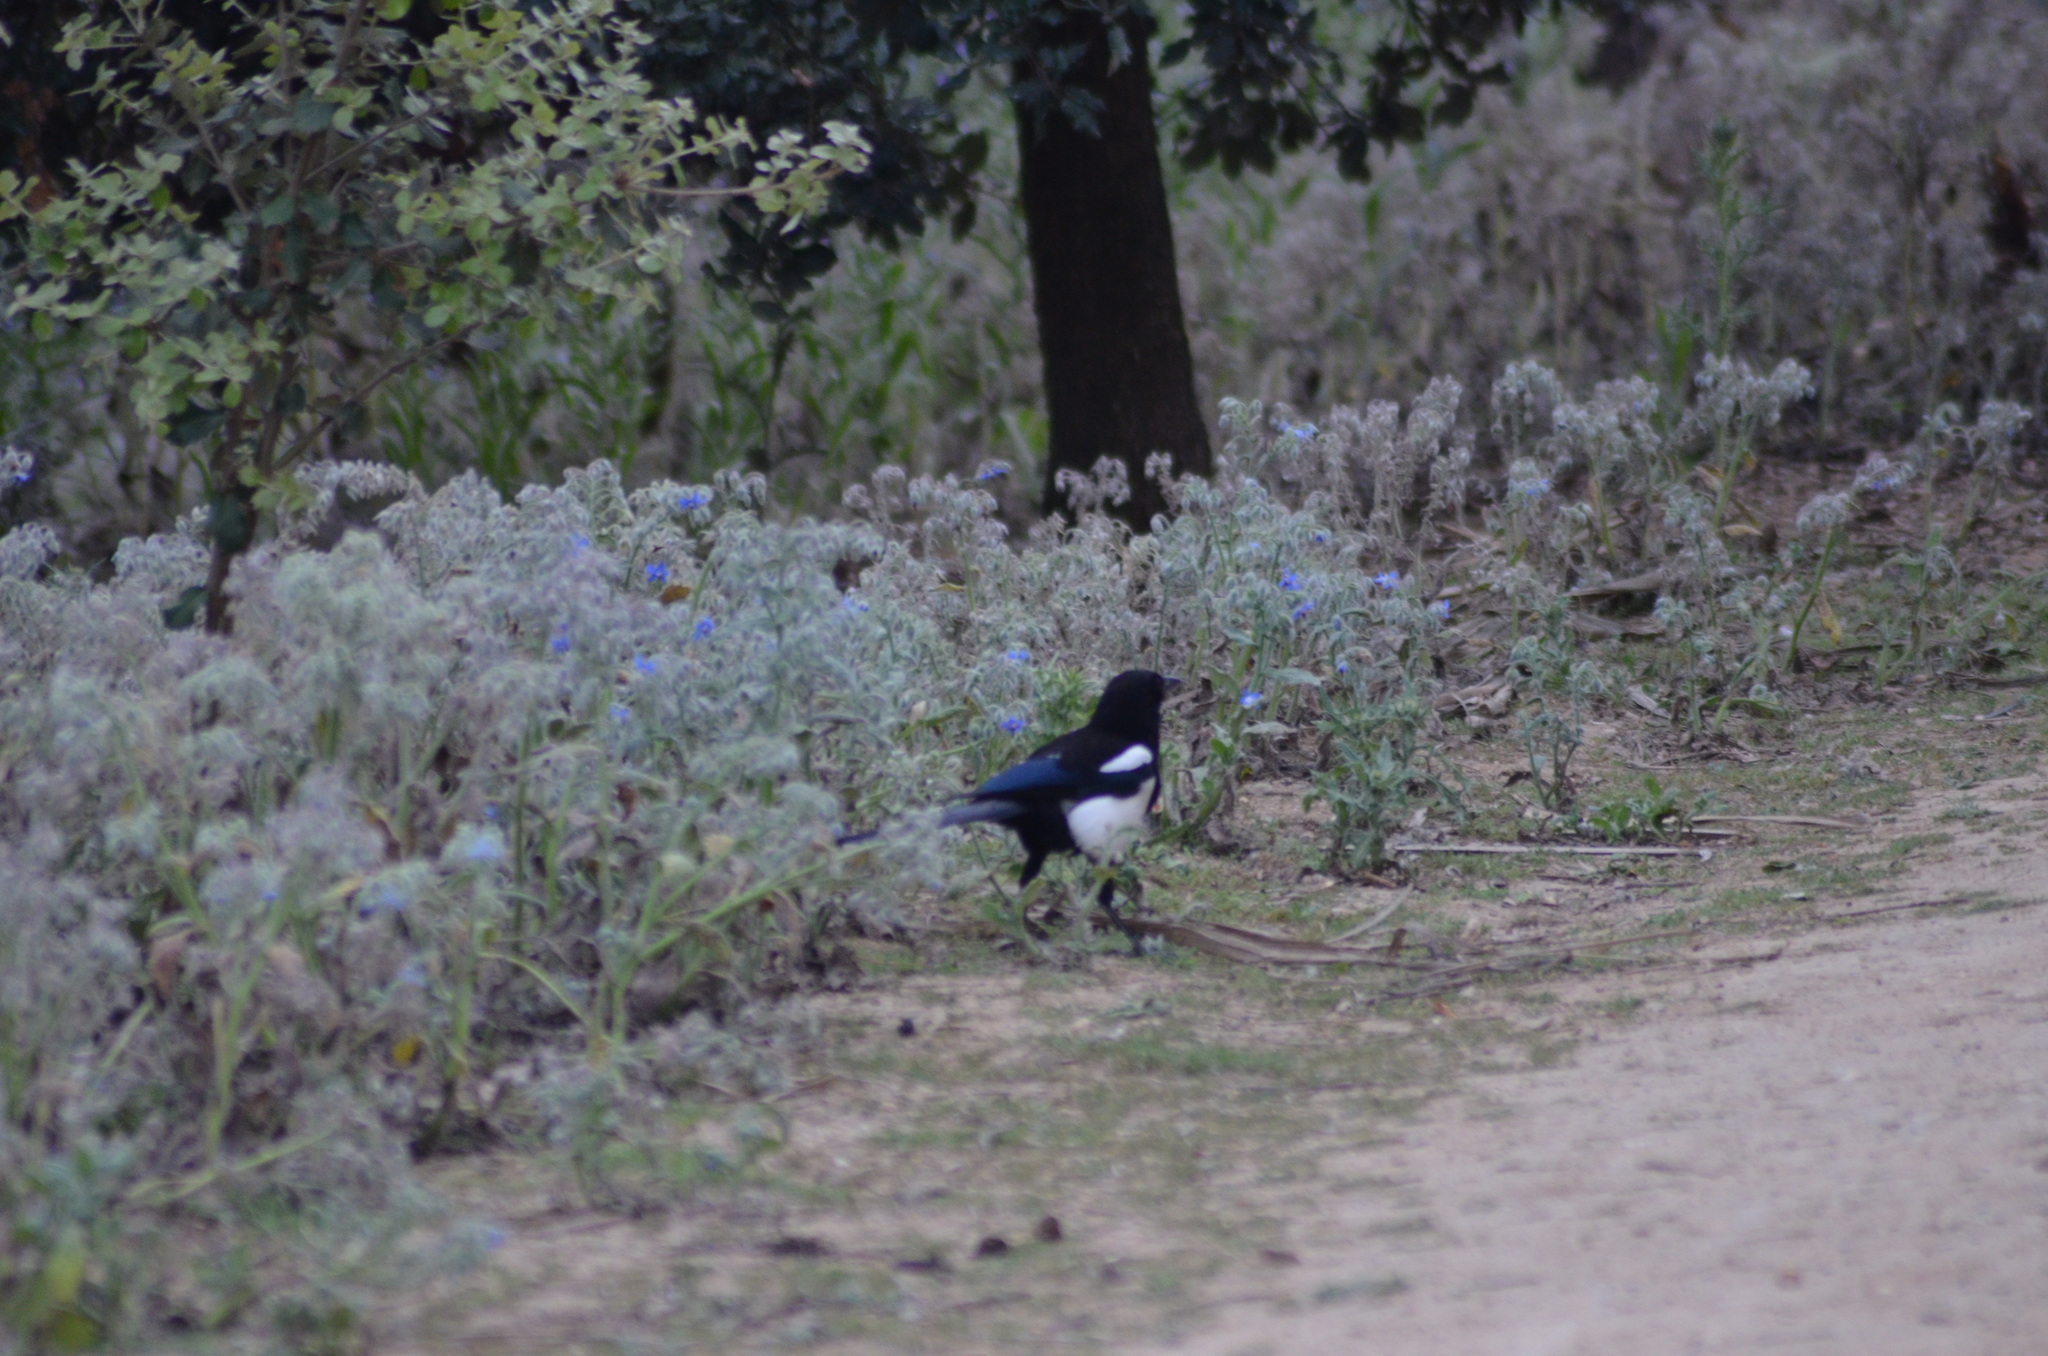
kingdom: Animalia
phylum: Chordata
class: Aves
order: Passeriformes
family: Corvidae
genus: Pica
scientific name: Pica pica
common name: Eurasian magpie
